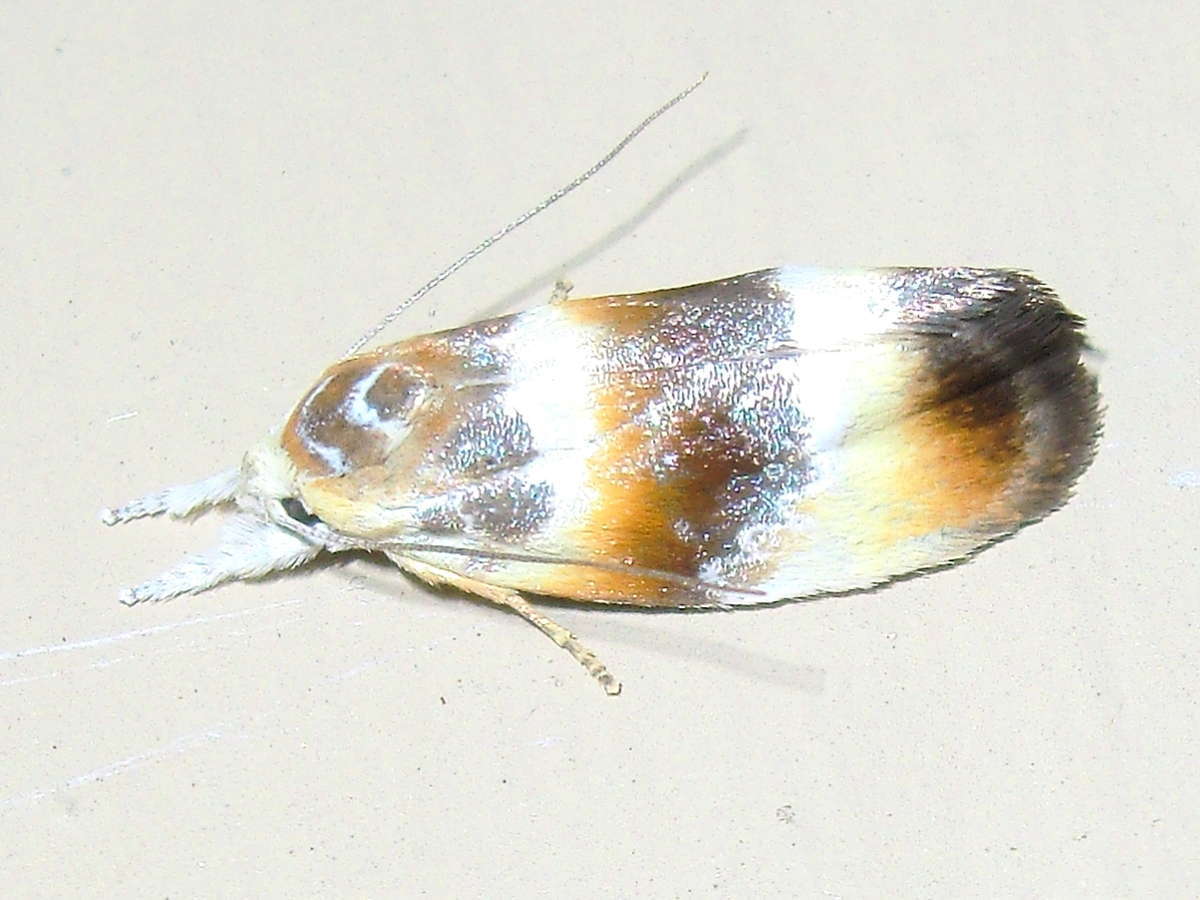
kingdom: Animalia
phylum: Arthropoda
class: Insecta
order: Lepidoptera
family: Oecophoridae
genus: Piloprepes
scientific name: Piloprepes anassa
